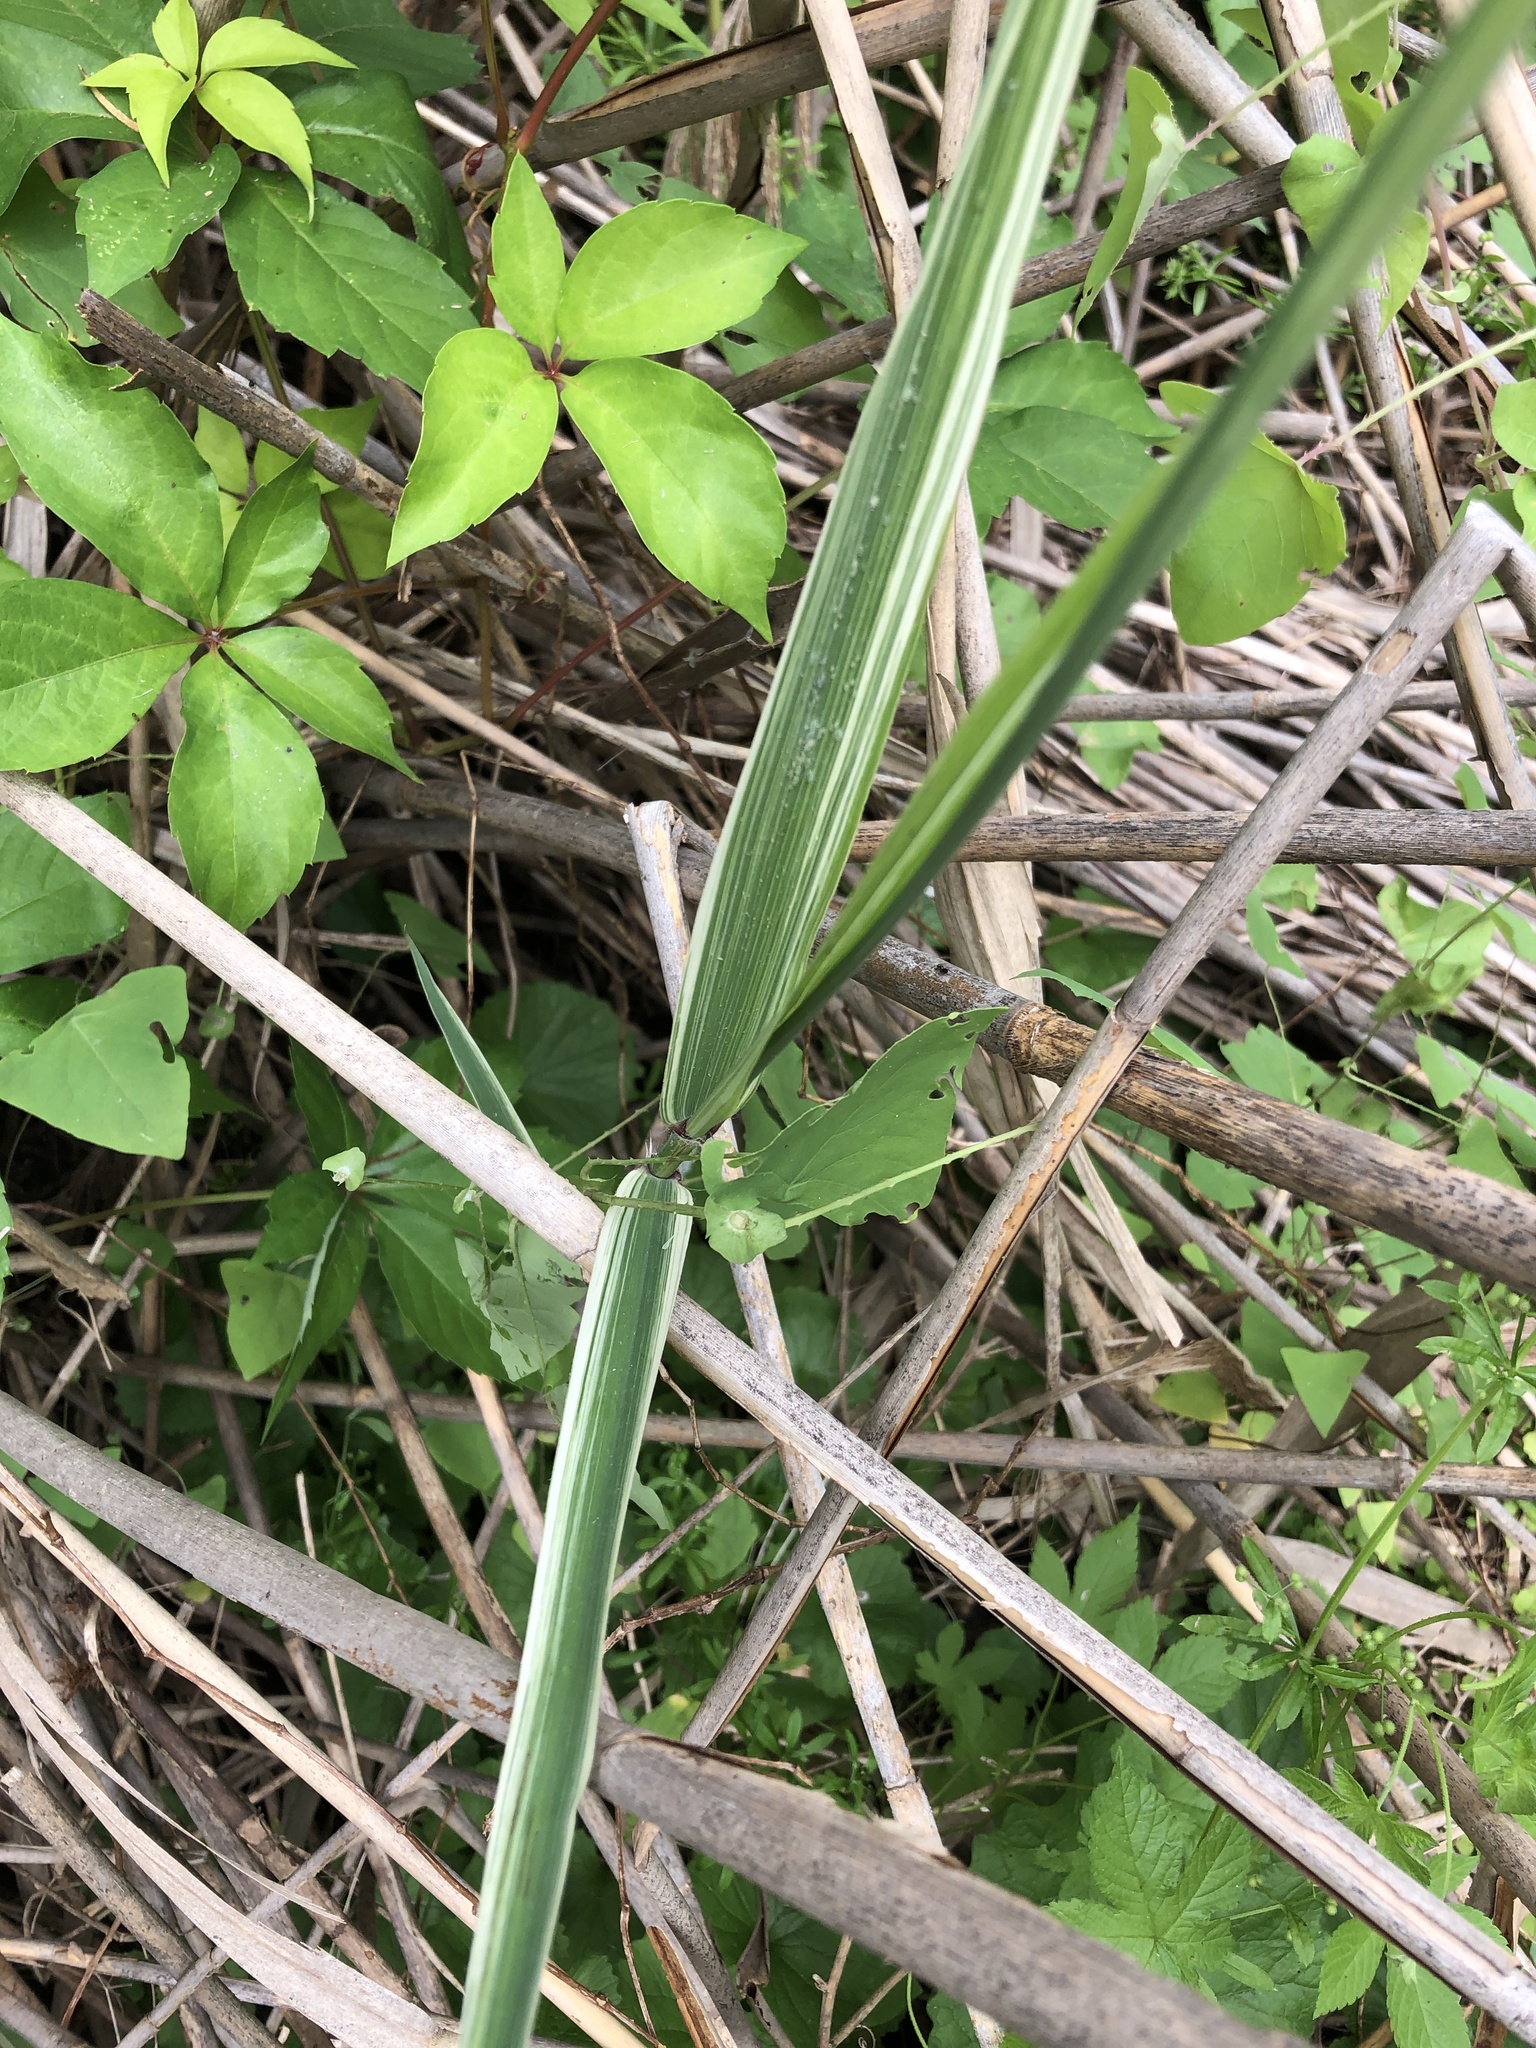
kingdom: Plantae
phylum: Tracheophyta
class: Liliopsida
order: Poales
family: Poaceae
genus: Phragmites
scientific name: Phragmites australis
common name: Common reed
